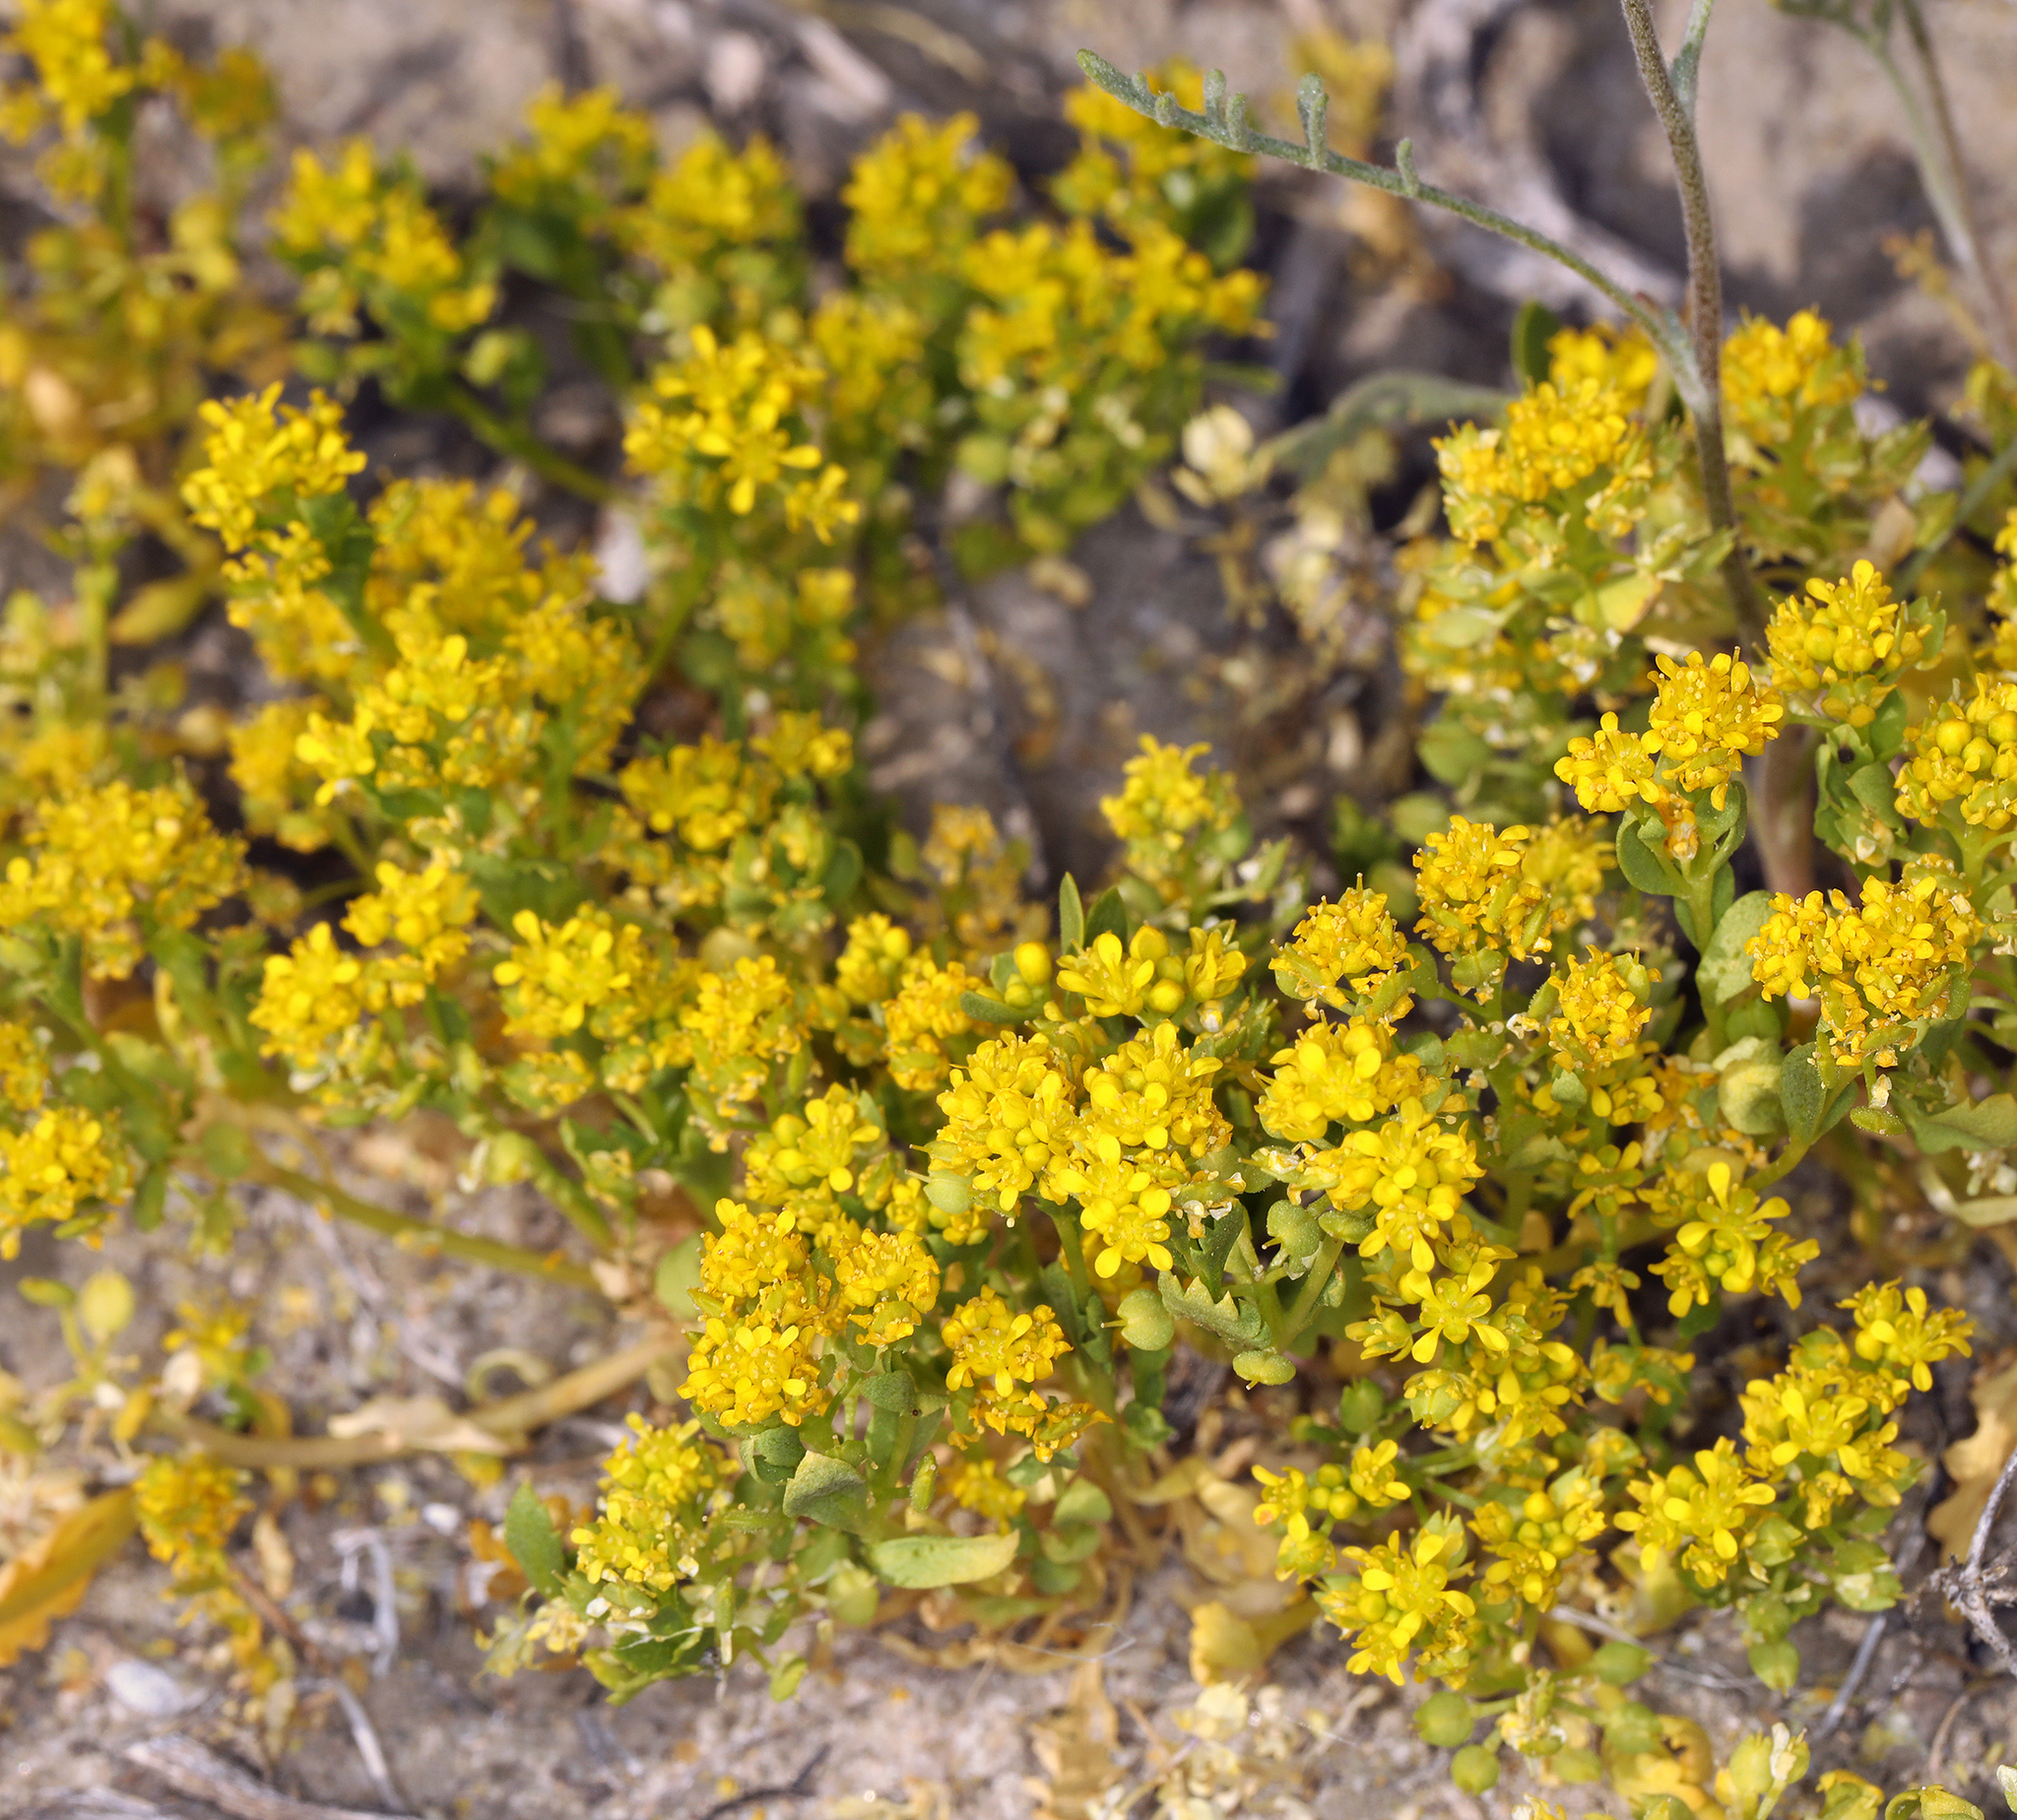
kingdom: Plantae
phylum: Tracheophyta
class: Magnoliopsida
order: Brassicales
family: Brassicaceae
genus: Lepidium
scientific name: Lepidium flavum
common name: Yellow pepperwort
